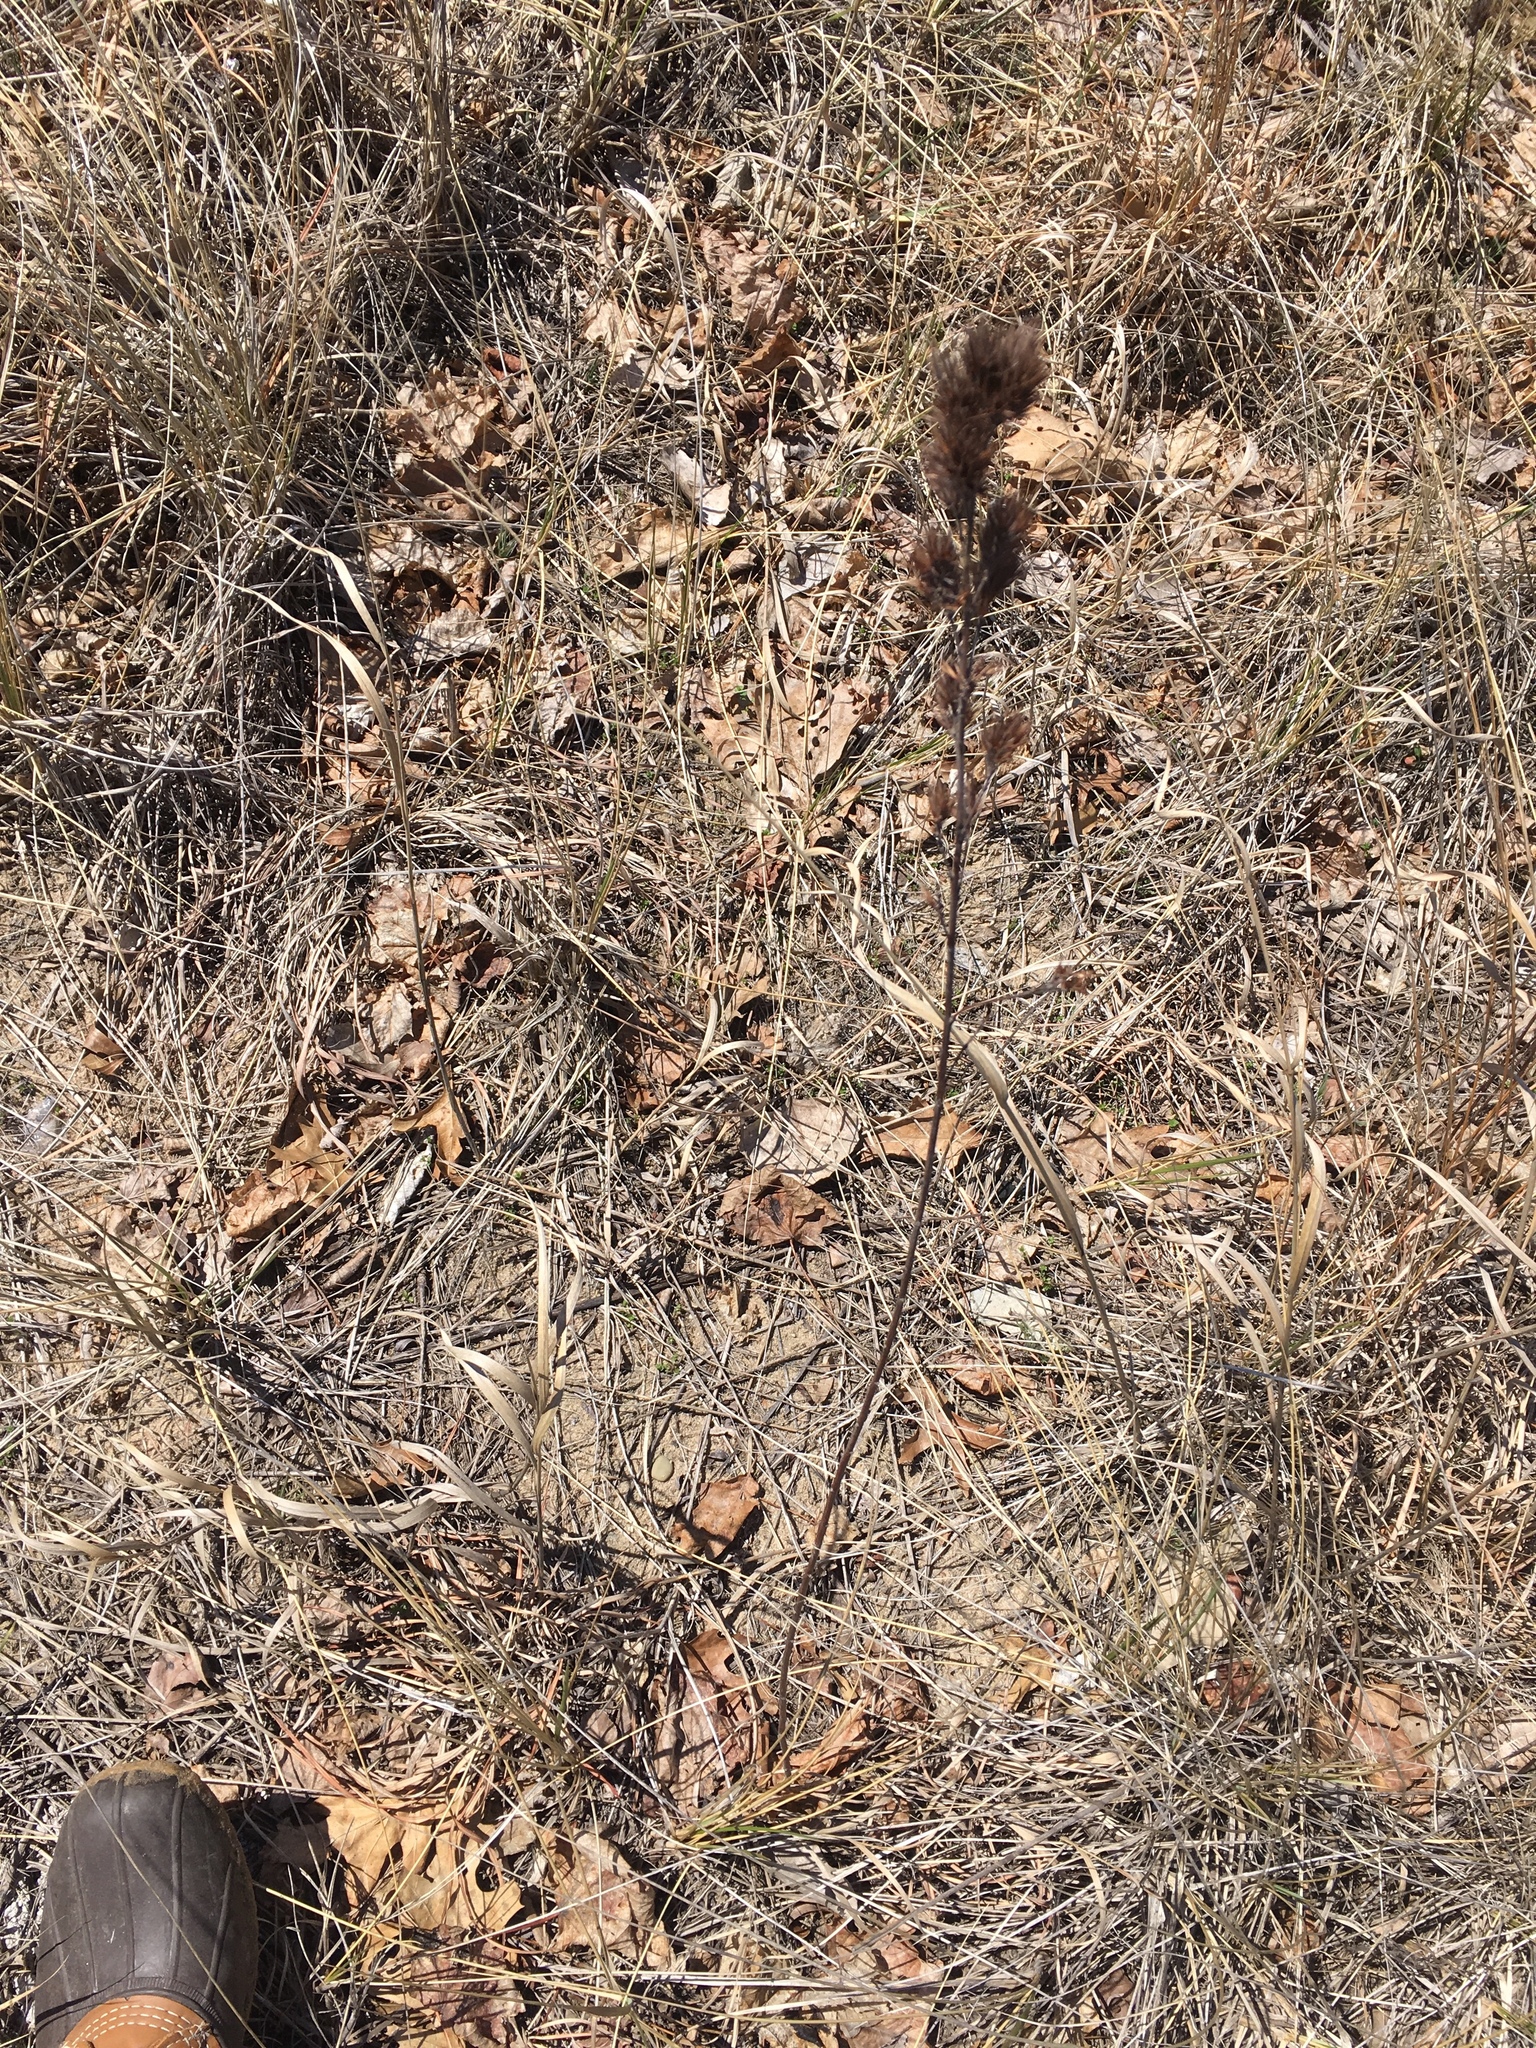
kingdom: Plantae
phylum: Tracheophyta
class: Magnoliopsida
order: Fabales
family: Fabaceae
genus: Lespedeza
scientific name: Lespedeza capitata
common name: Dusty clover
